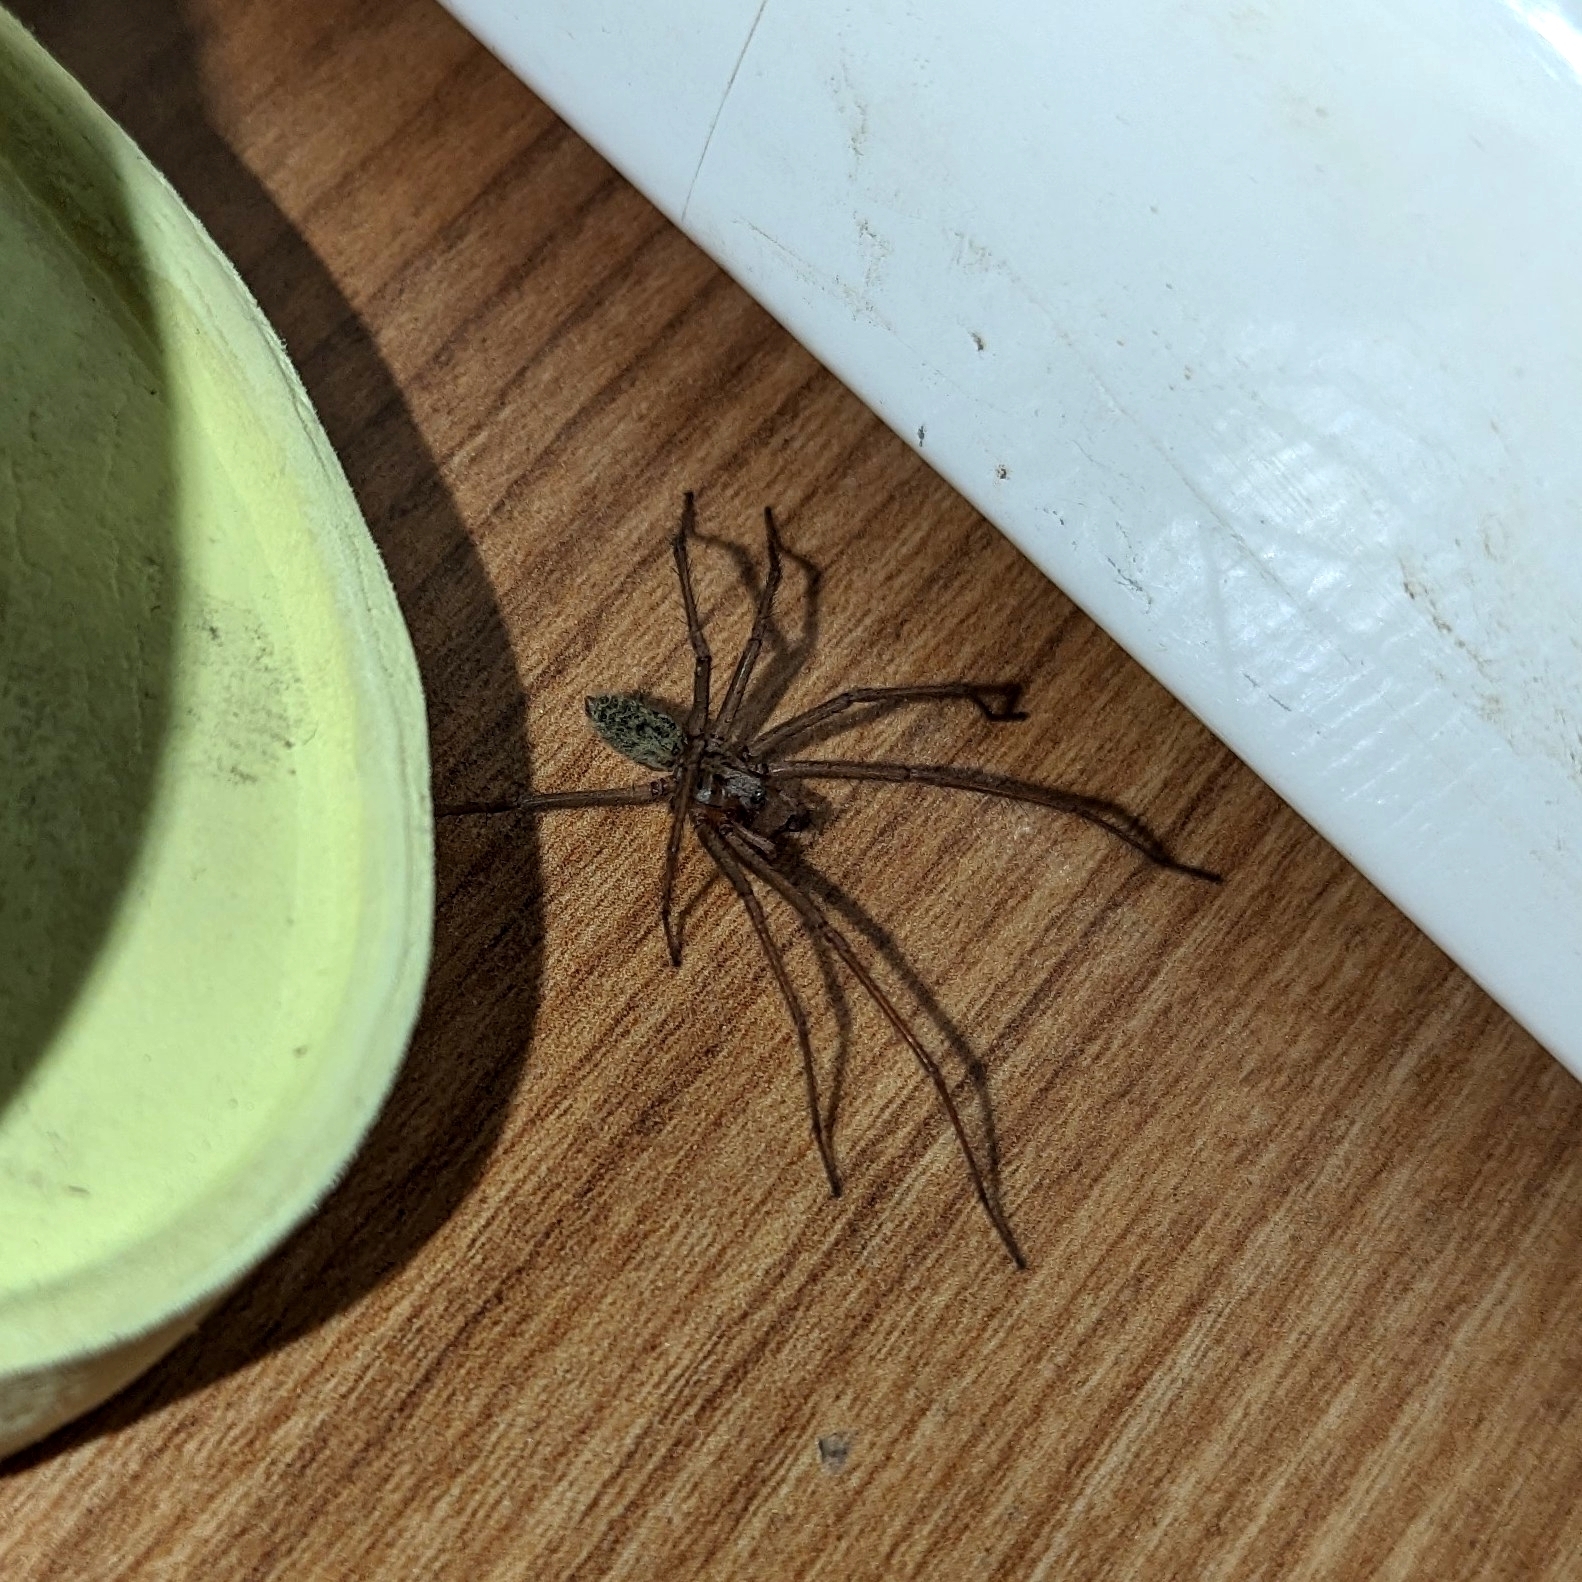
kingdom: Animalia
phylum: Arthropoda
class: Arachnida
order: Araneae
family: Agelenidae
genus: Eratigena
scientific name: Eratigena duellica
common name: Giant house spider
